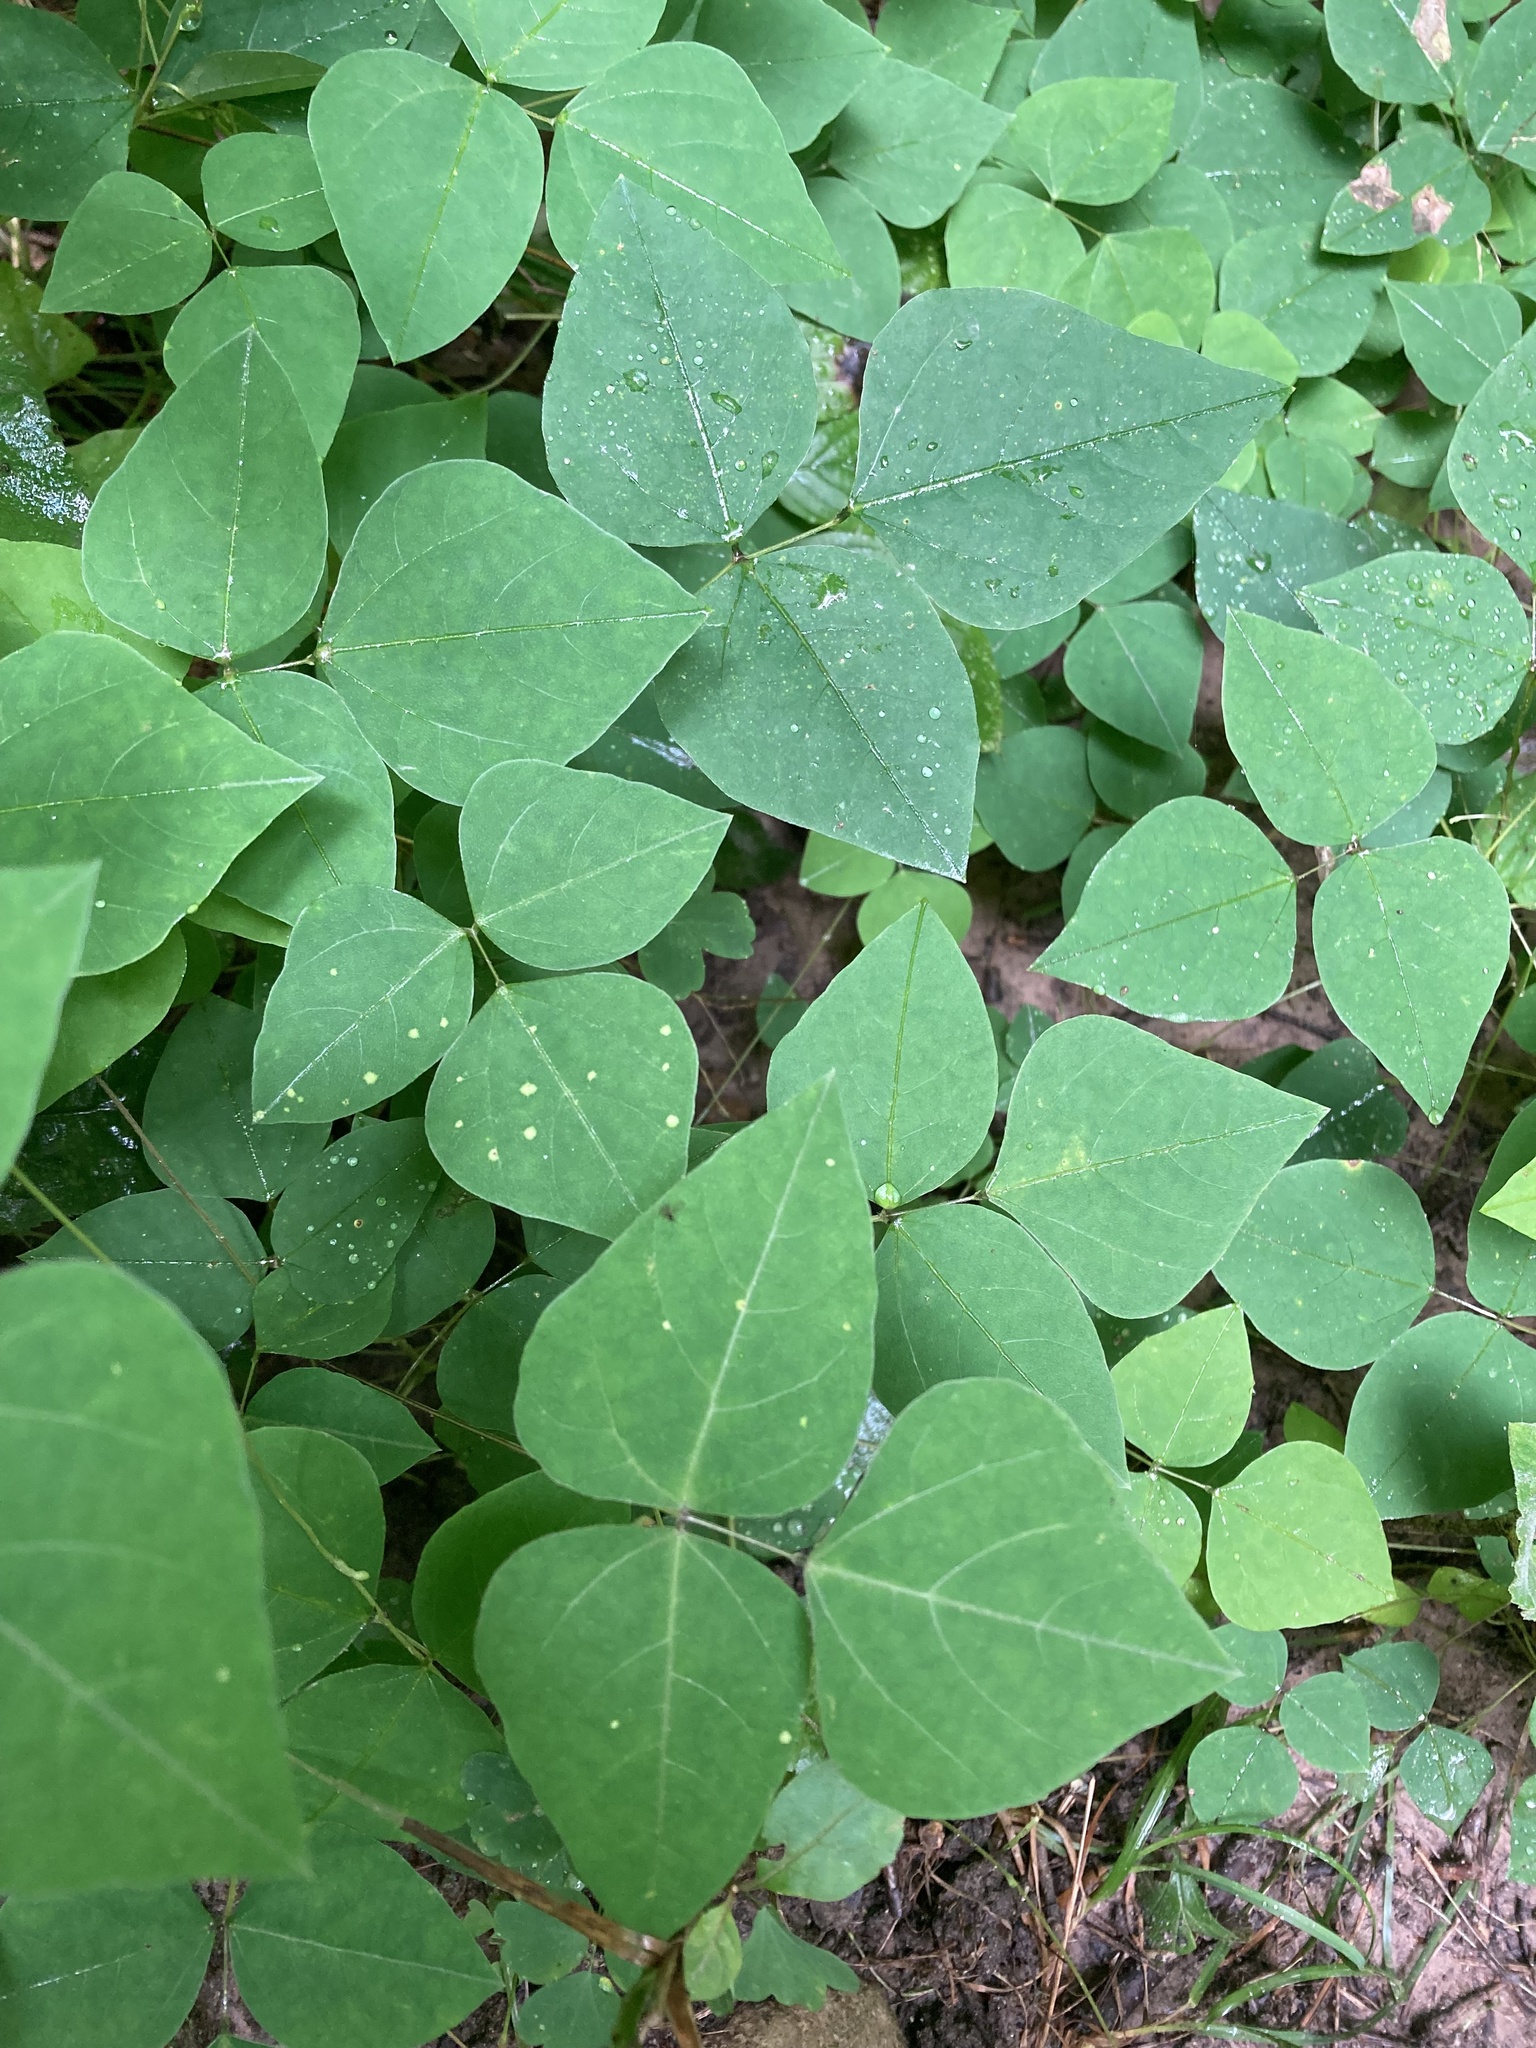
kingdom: Plantae
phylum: Tracheophyta
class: Magnoliopsida
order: Fabales
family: Fabaceae
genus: Amphicarpaea
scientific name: Amphicarpaea bracteata
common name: American hog peanut
